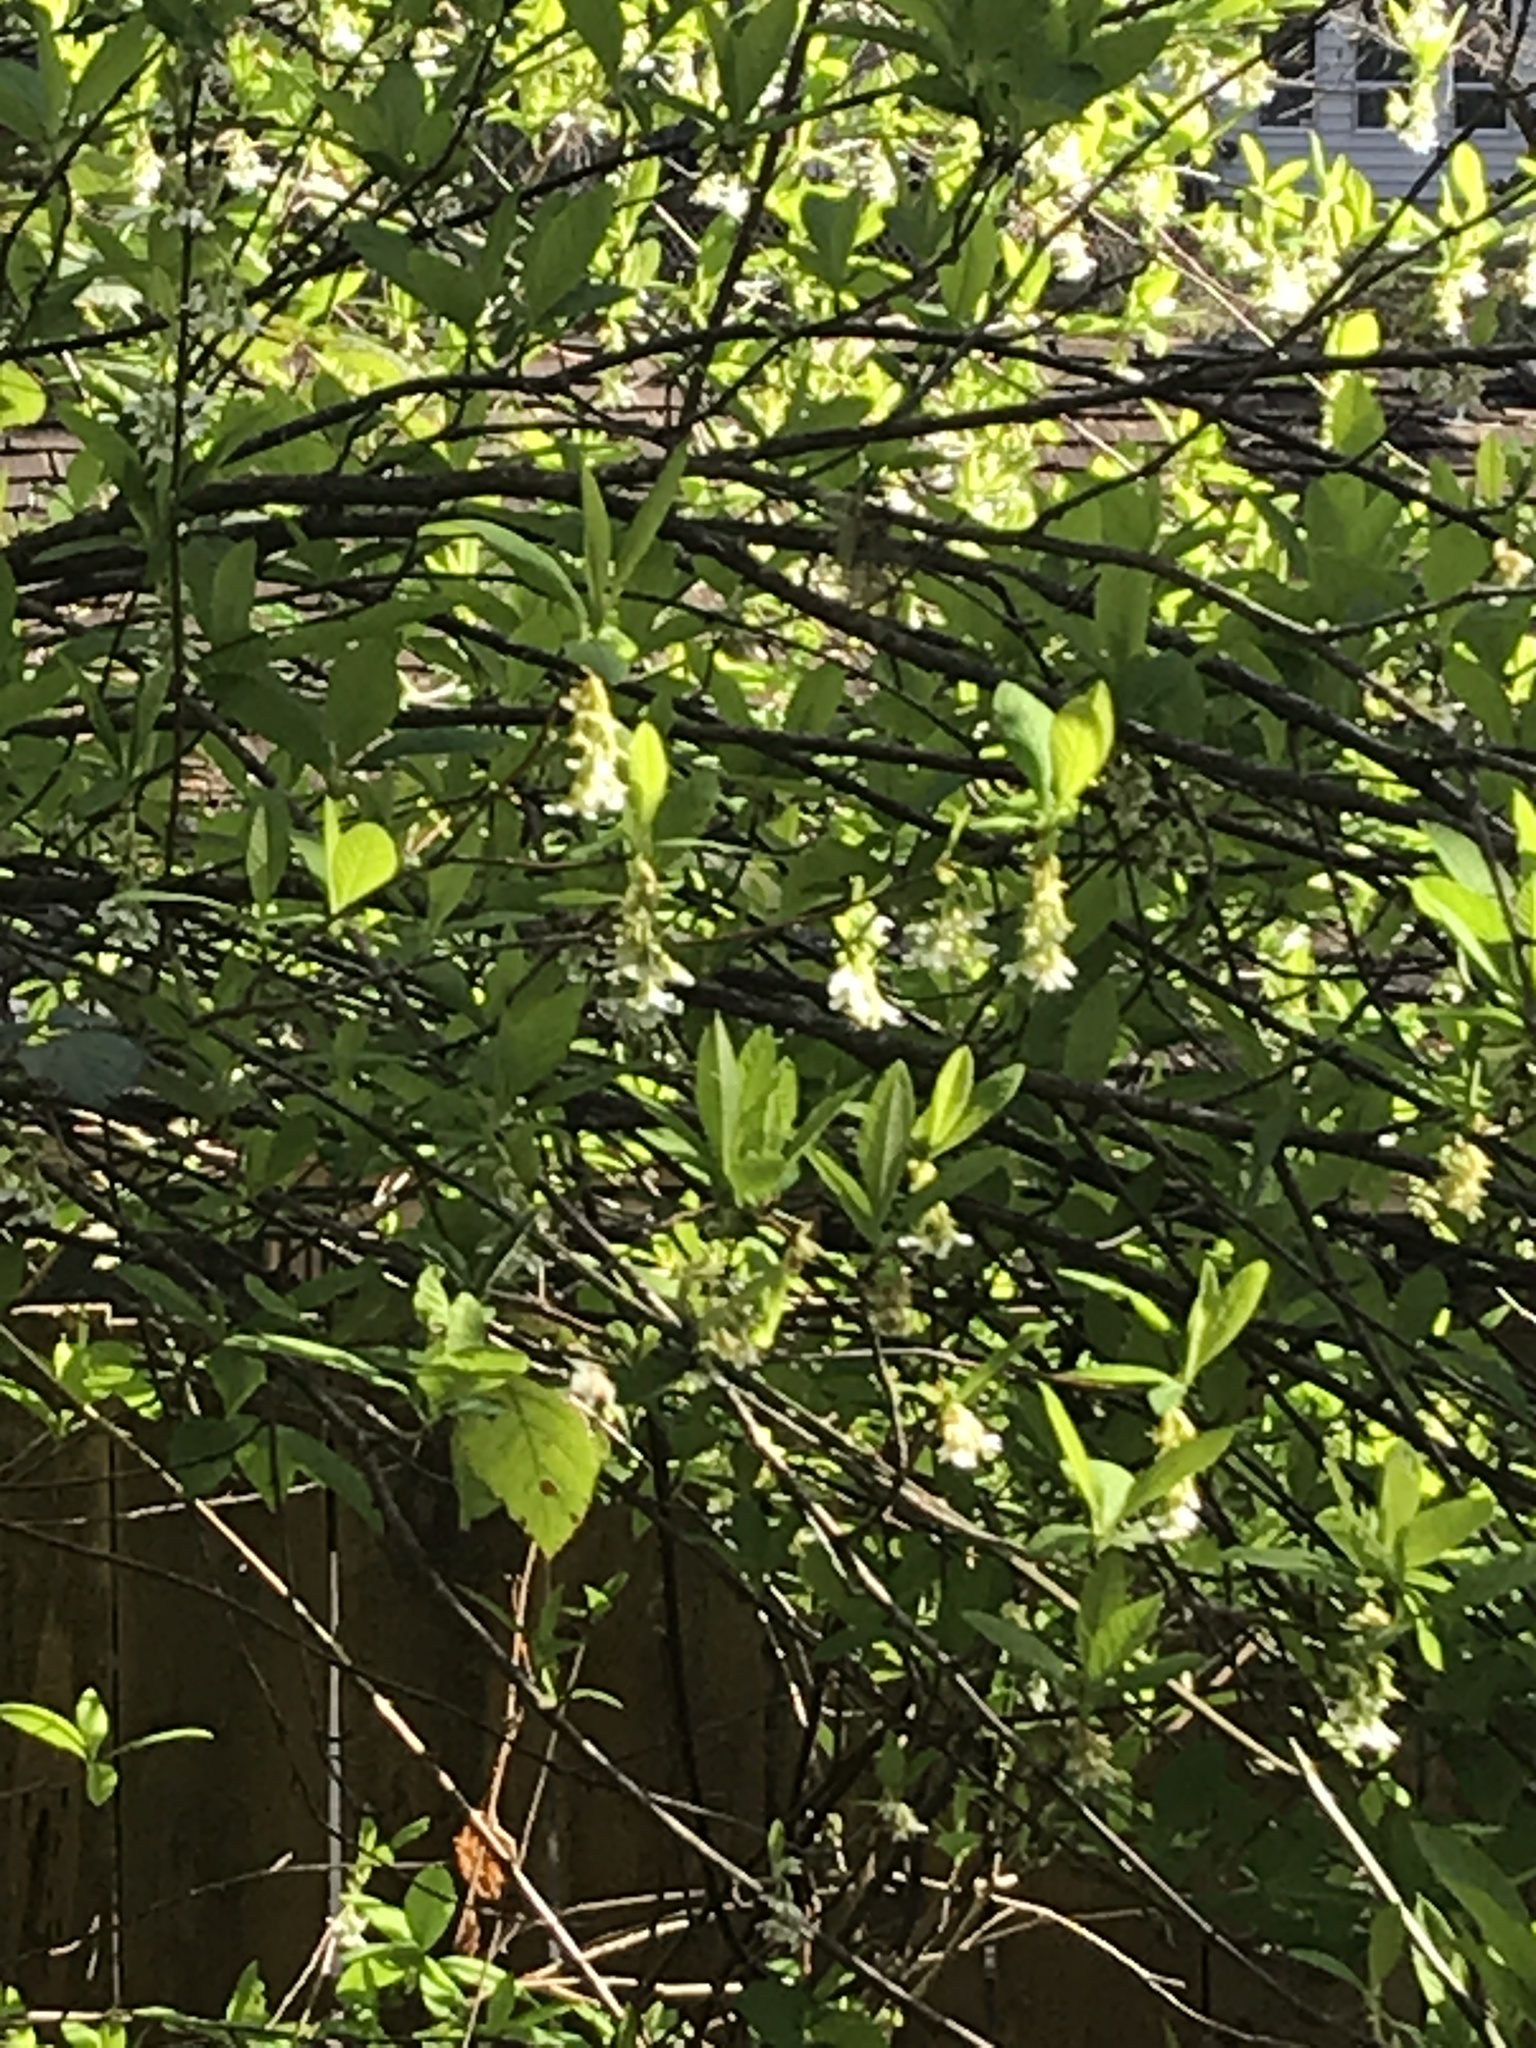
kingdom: Plantae
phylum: Tracheophyta
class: Magnoliopsida
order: Rosales
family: Rosaceae
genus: Oemleria
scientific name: Oemleria cerasiformis
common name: Osoberry
